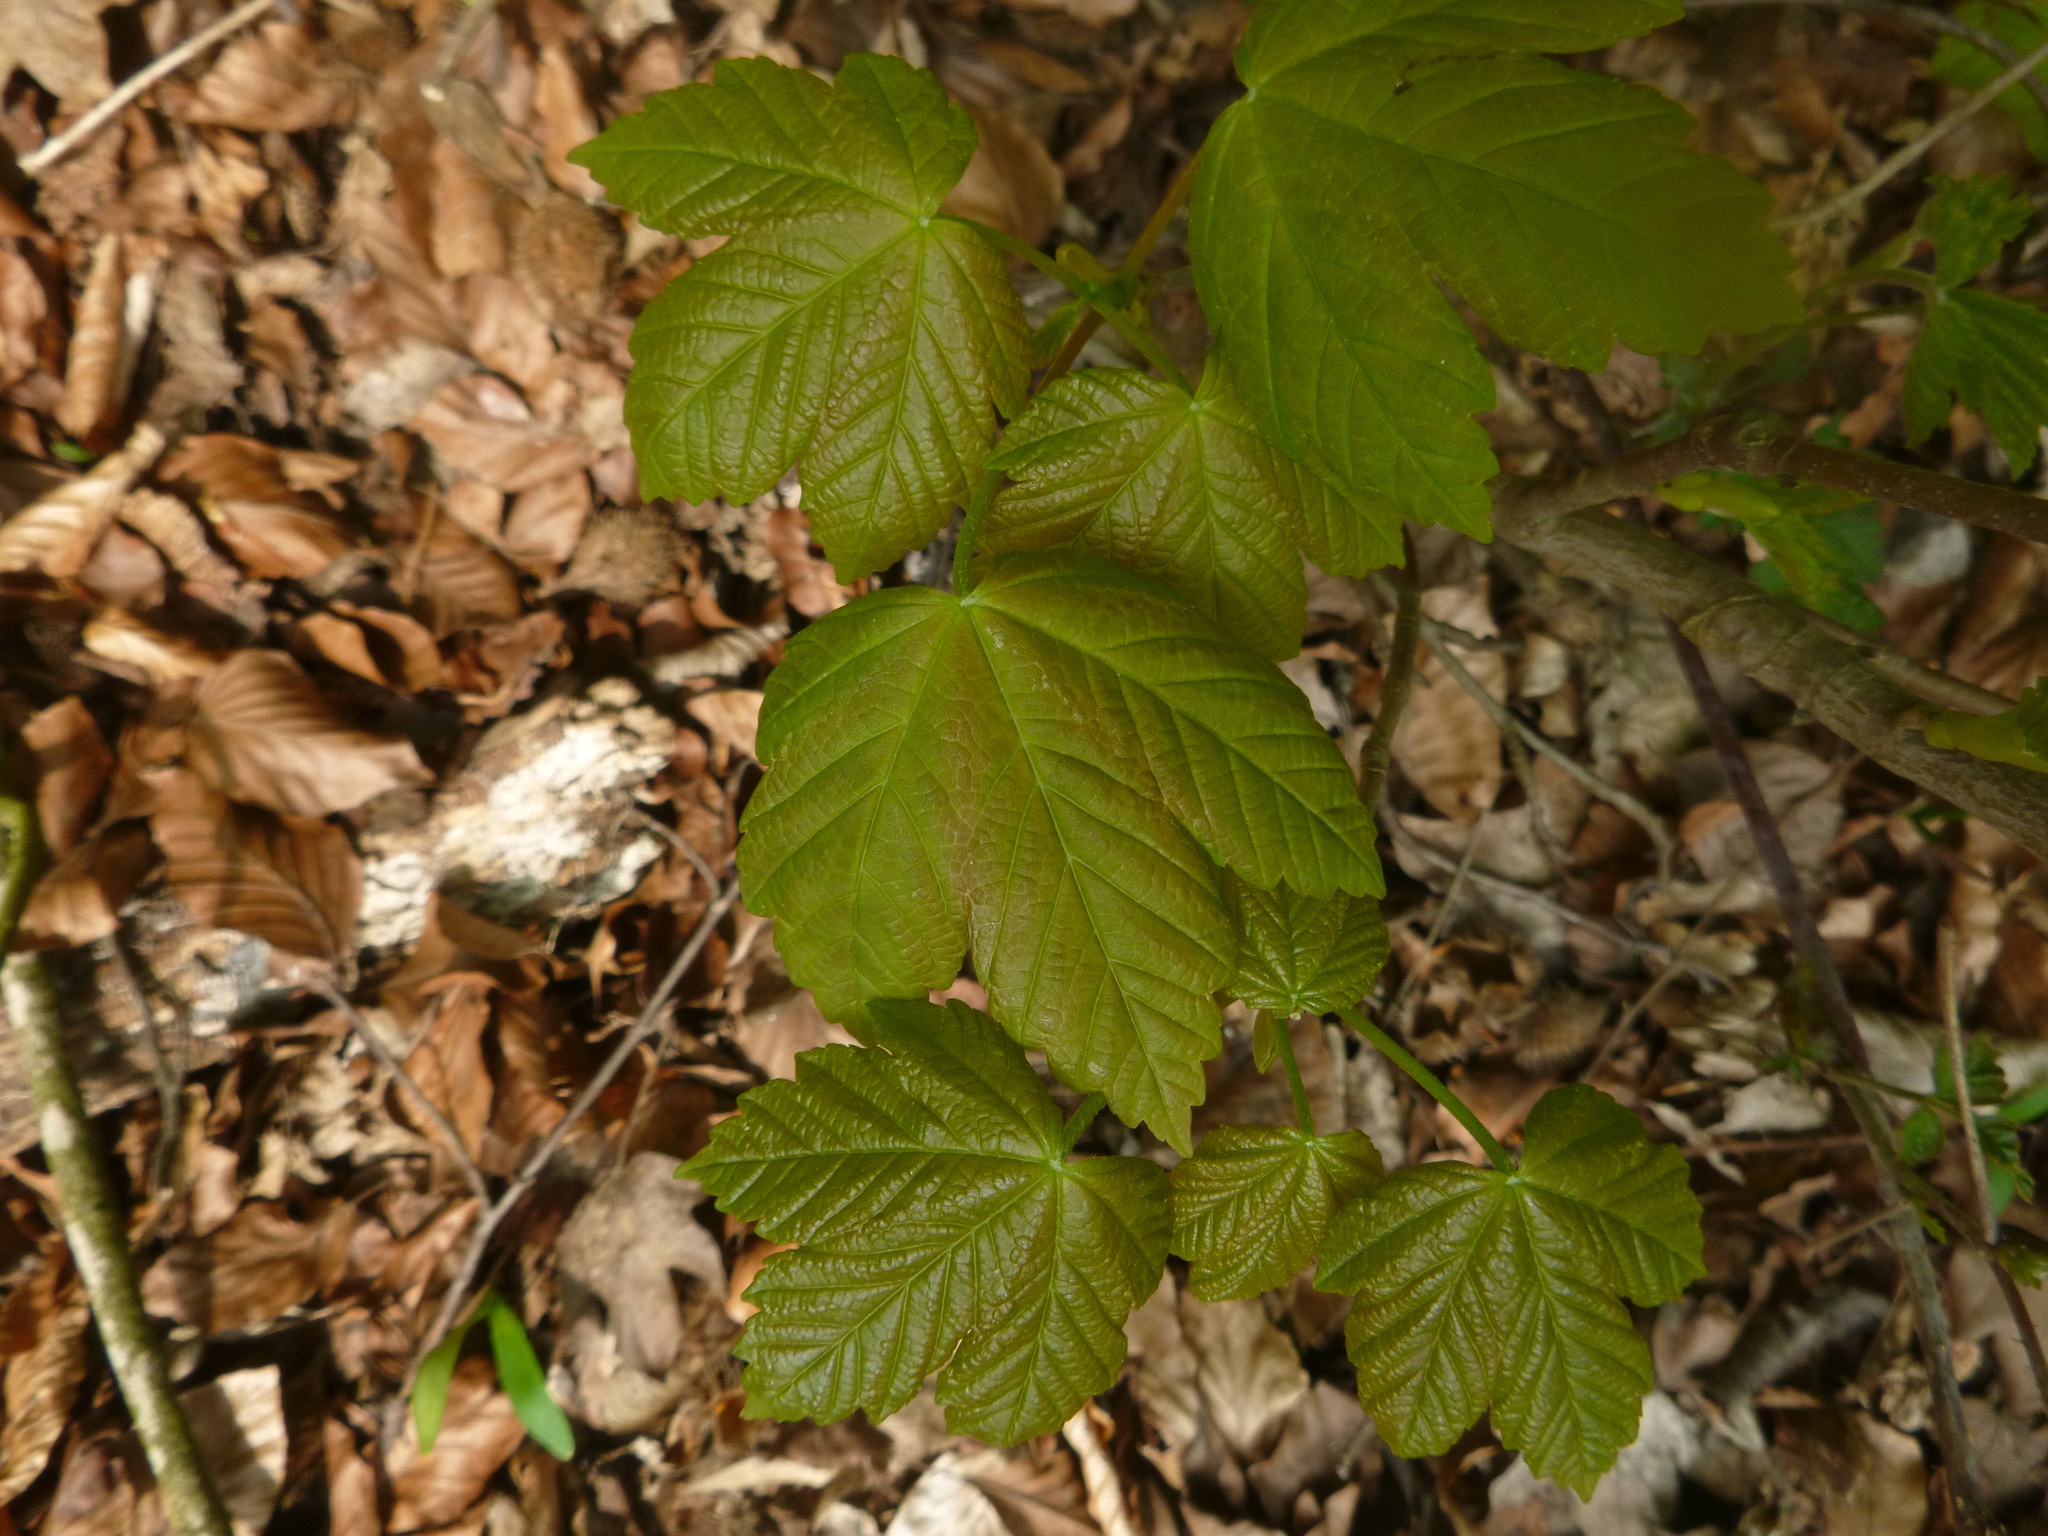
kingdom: Plantae
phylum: Tracheophyta
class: Magnoliopsida
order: Sapindales
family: Sapindaceae
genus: Acer
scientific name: Acer pseudoplatanus
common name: Sycamore
